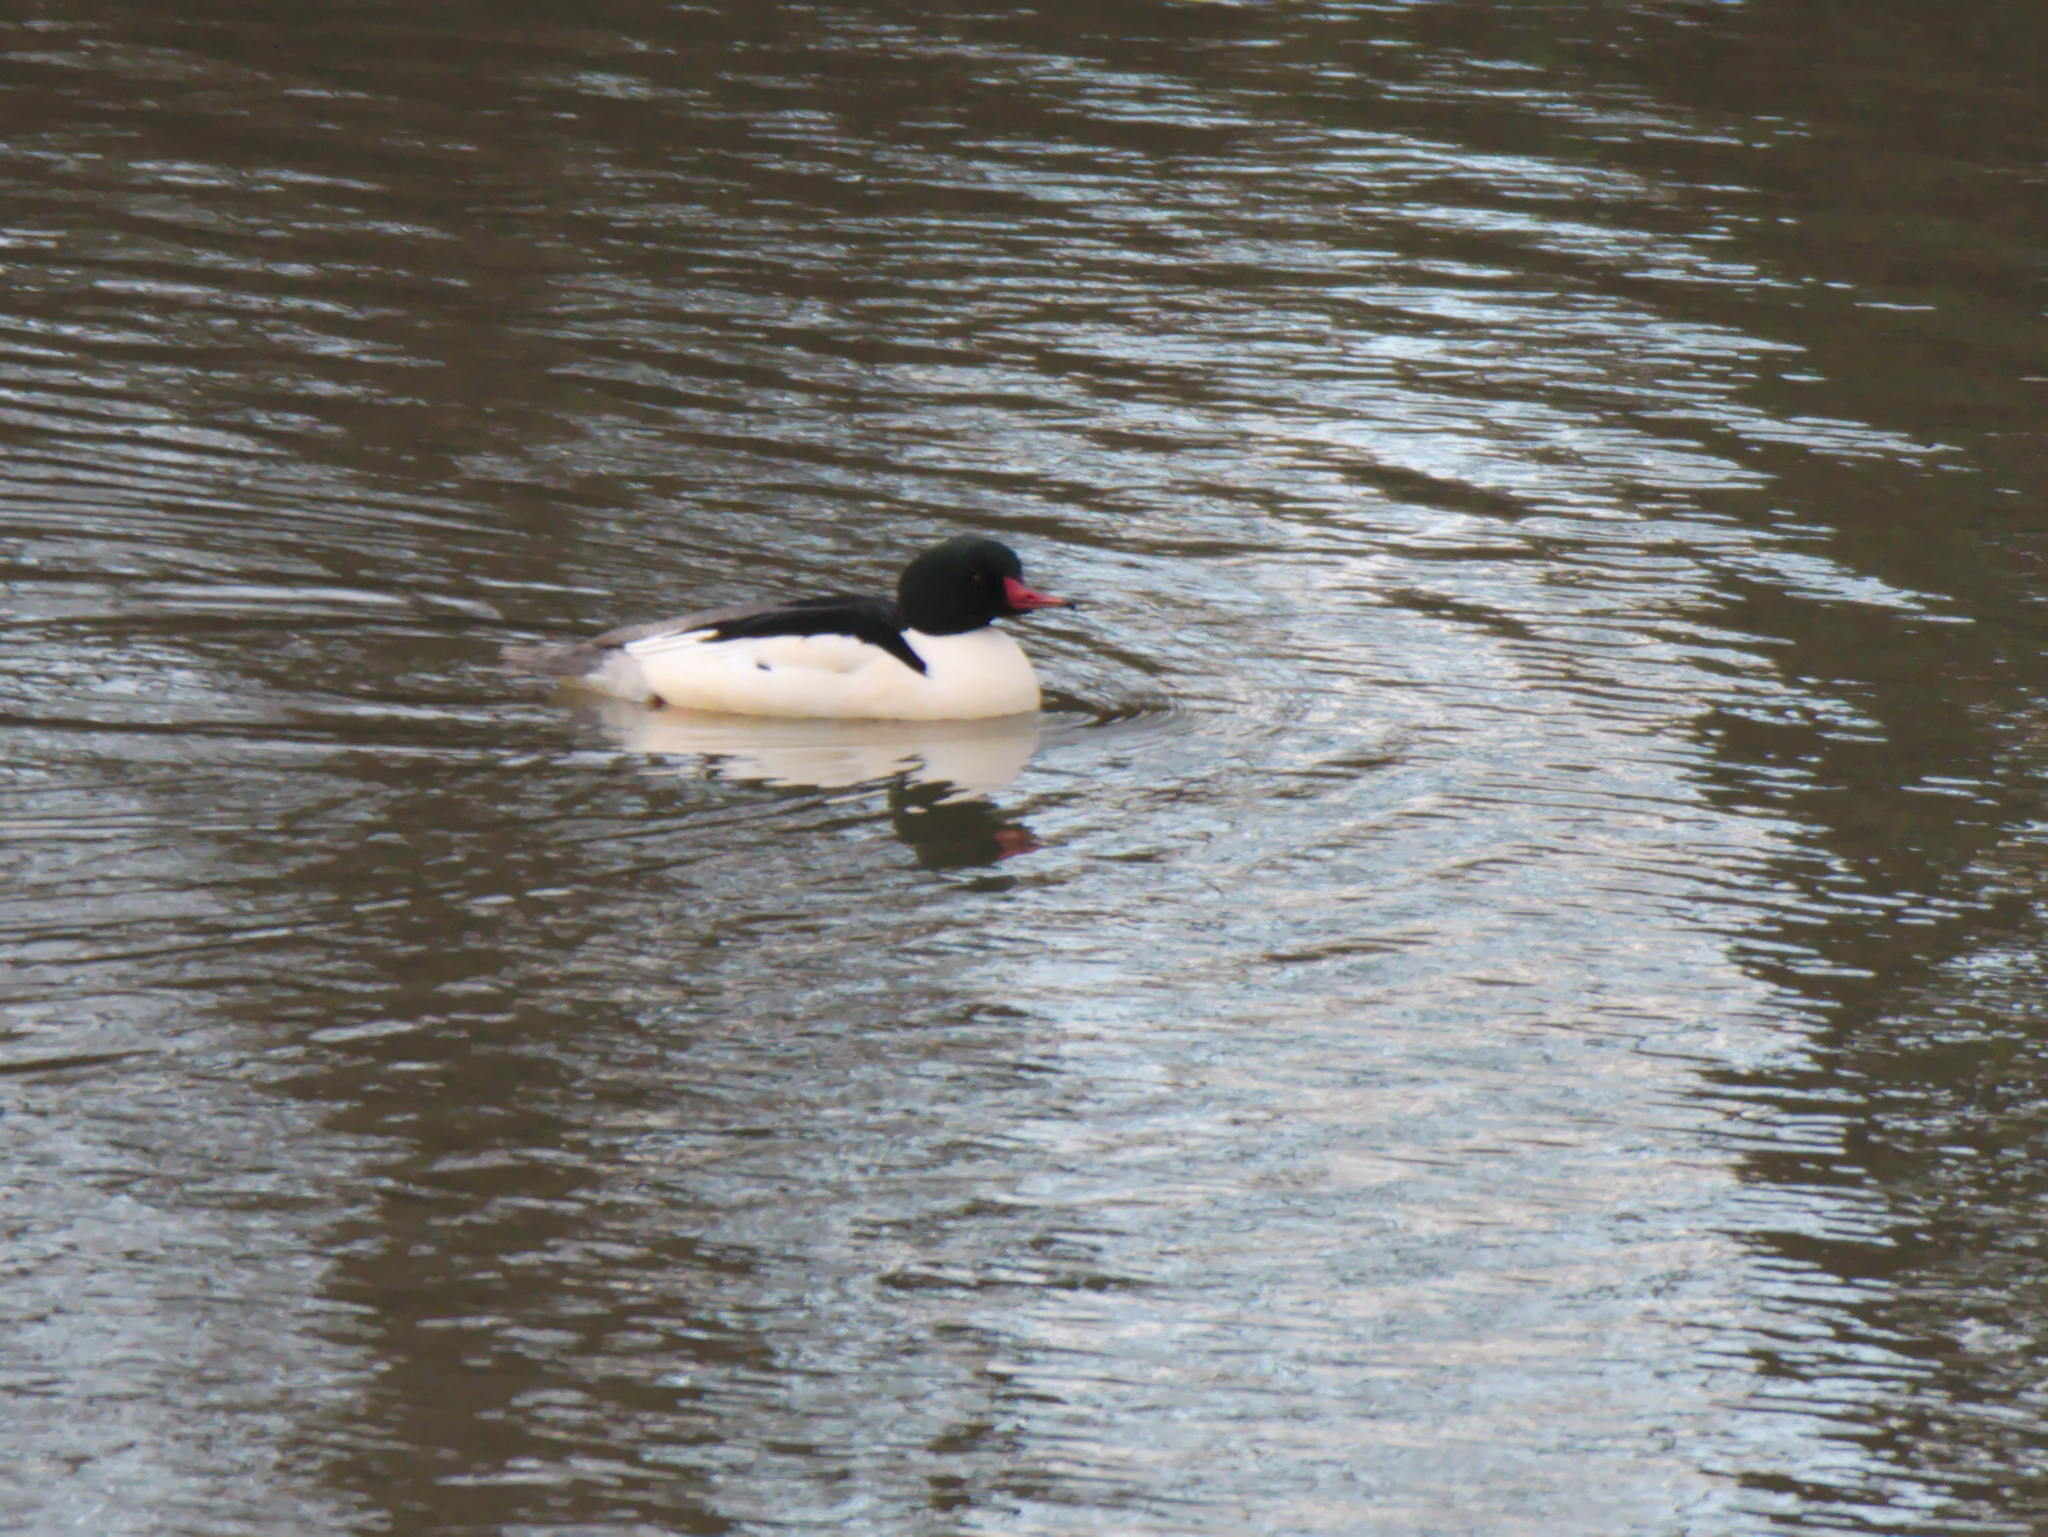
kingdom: Animalia
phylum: Chordata
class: Aves
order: Anseriformes
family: Anatidae
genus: Mergus
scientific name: Mergus merganser
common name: Common merganser
